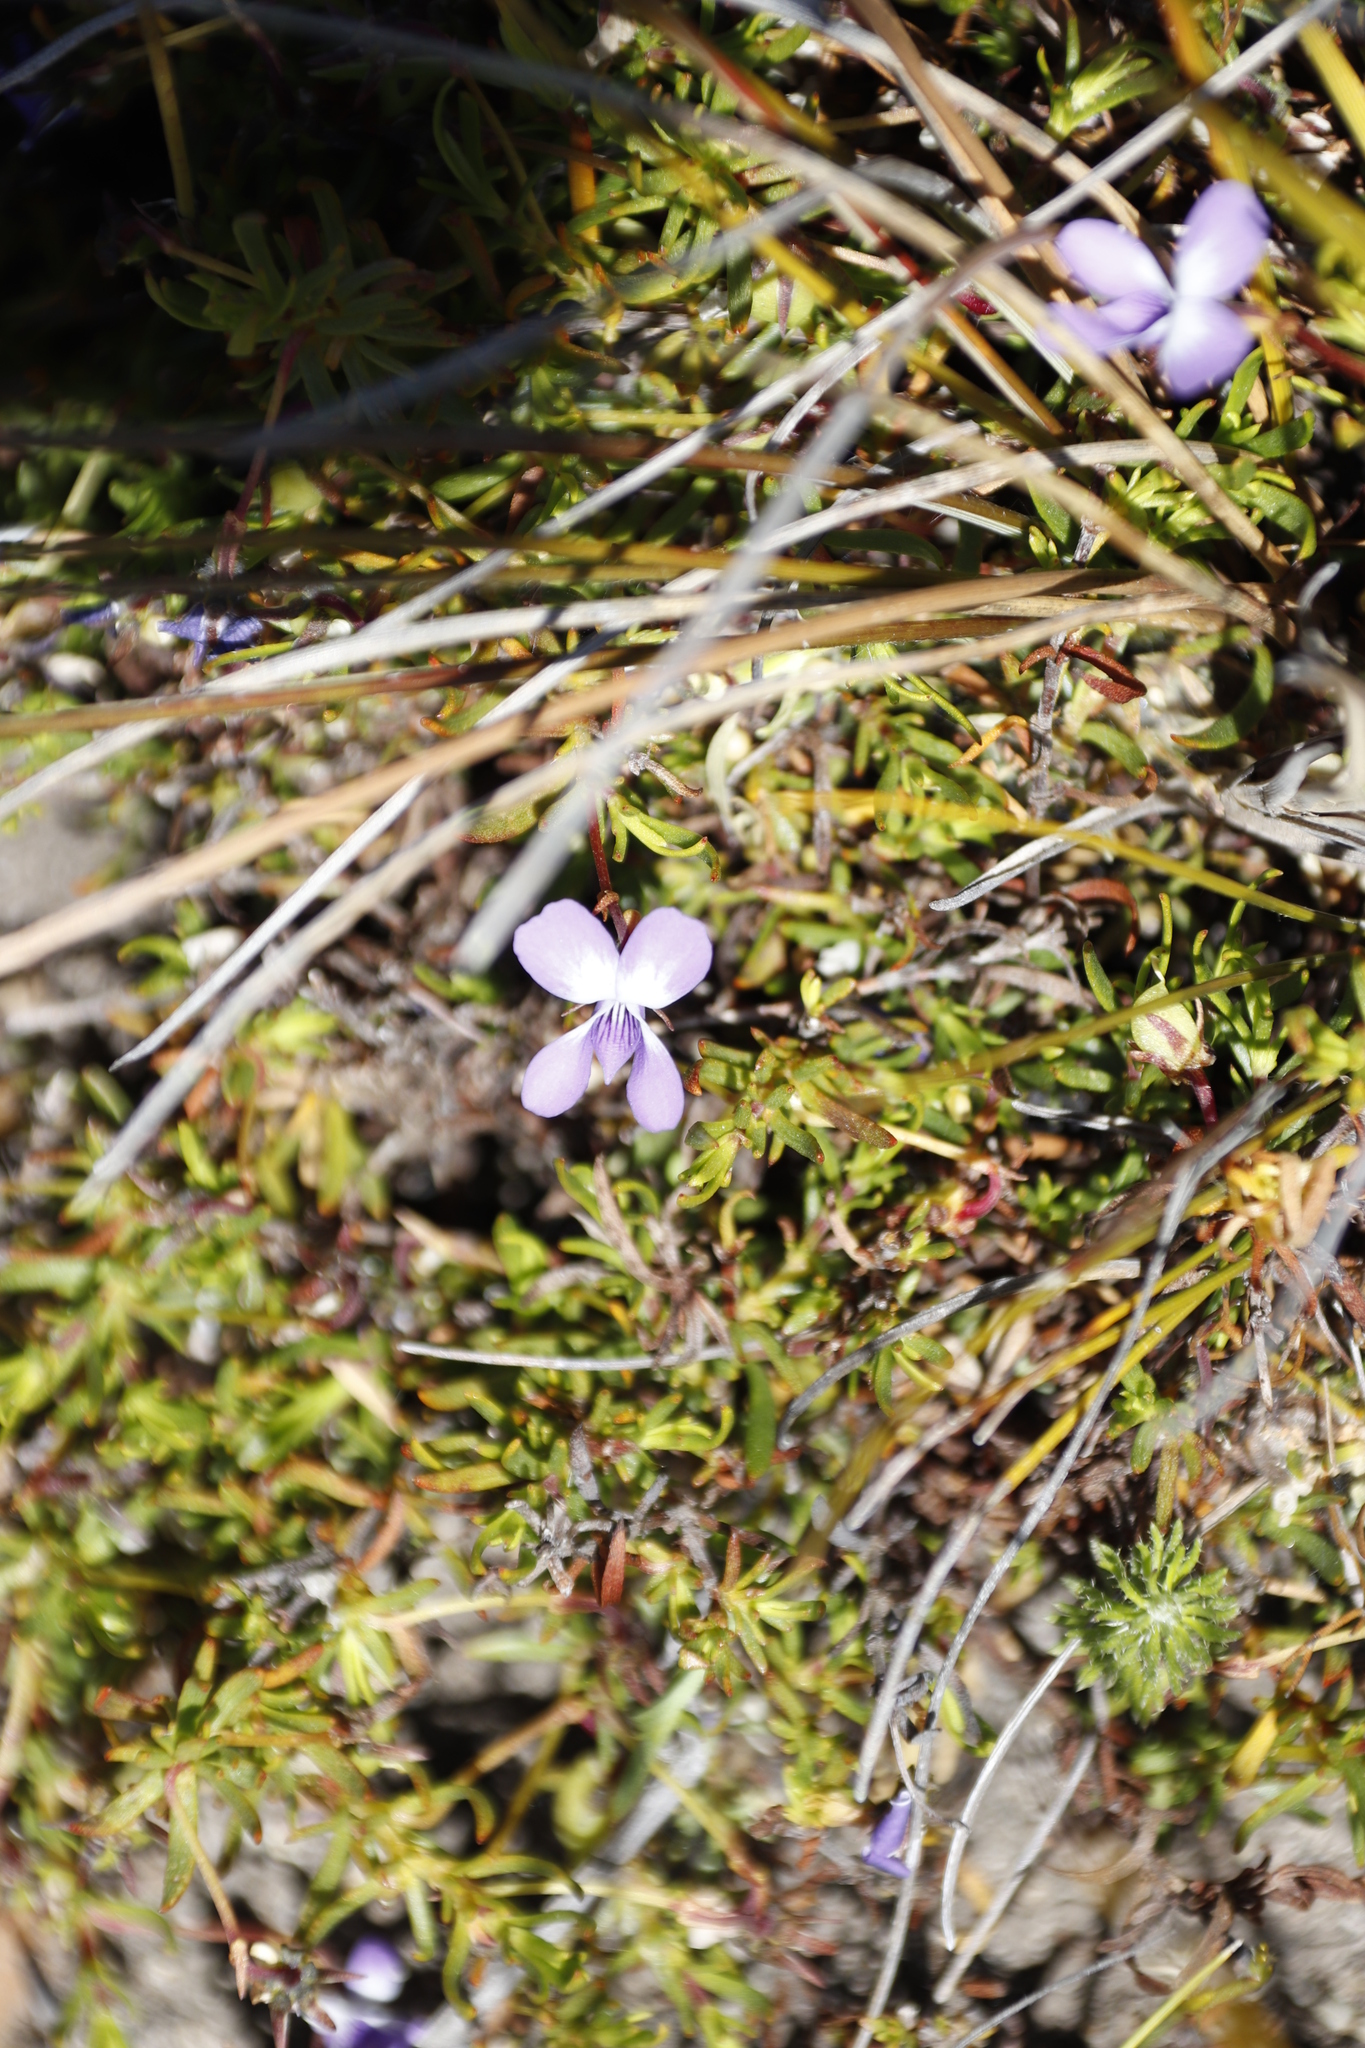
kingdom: Plantae
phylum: Tracheophyta
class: Magnoliopsida
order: Malpighiales
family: Violaceae
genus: Viola
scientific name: Viola decumbens
